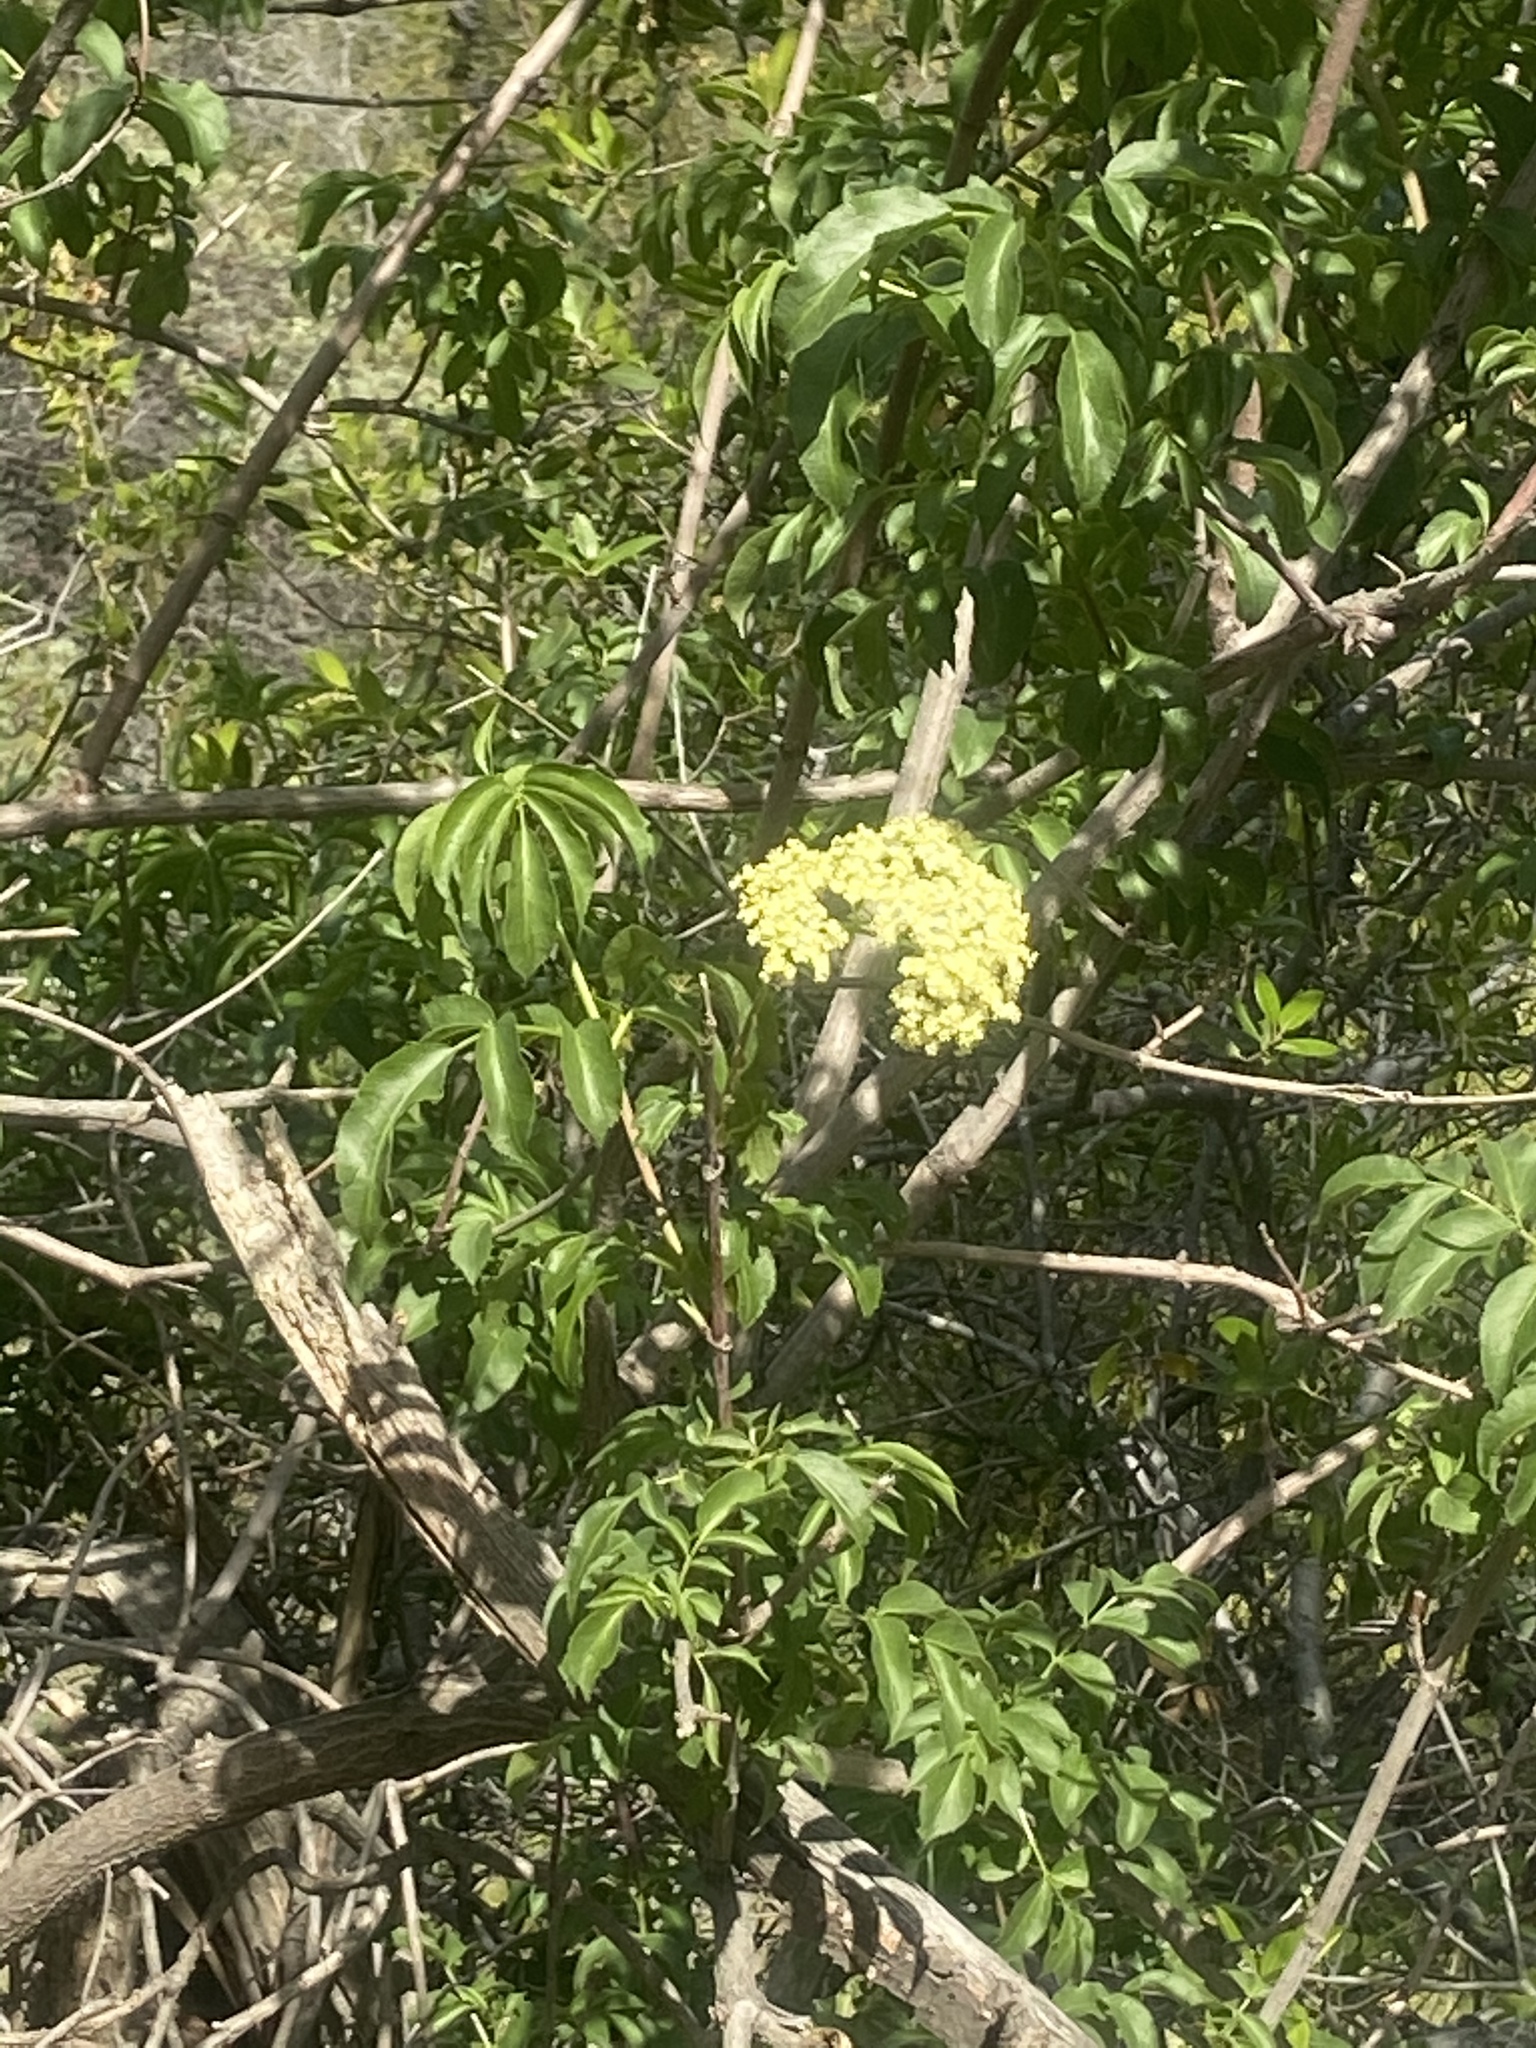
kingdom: Plantae
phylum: Tracheophyta
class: Magnoliopsida
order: Dipsacales
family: Viburnaceae
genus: Sambucus
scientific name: Sambucus cerulea
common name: Blue elder
